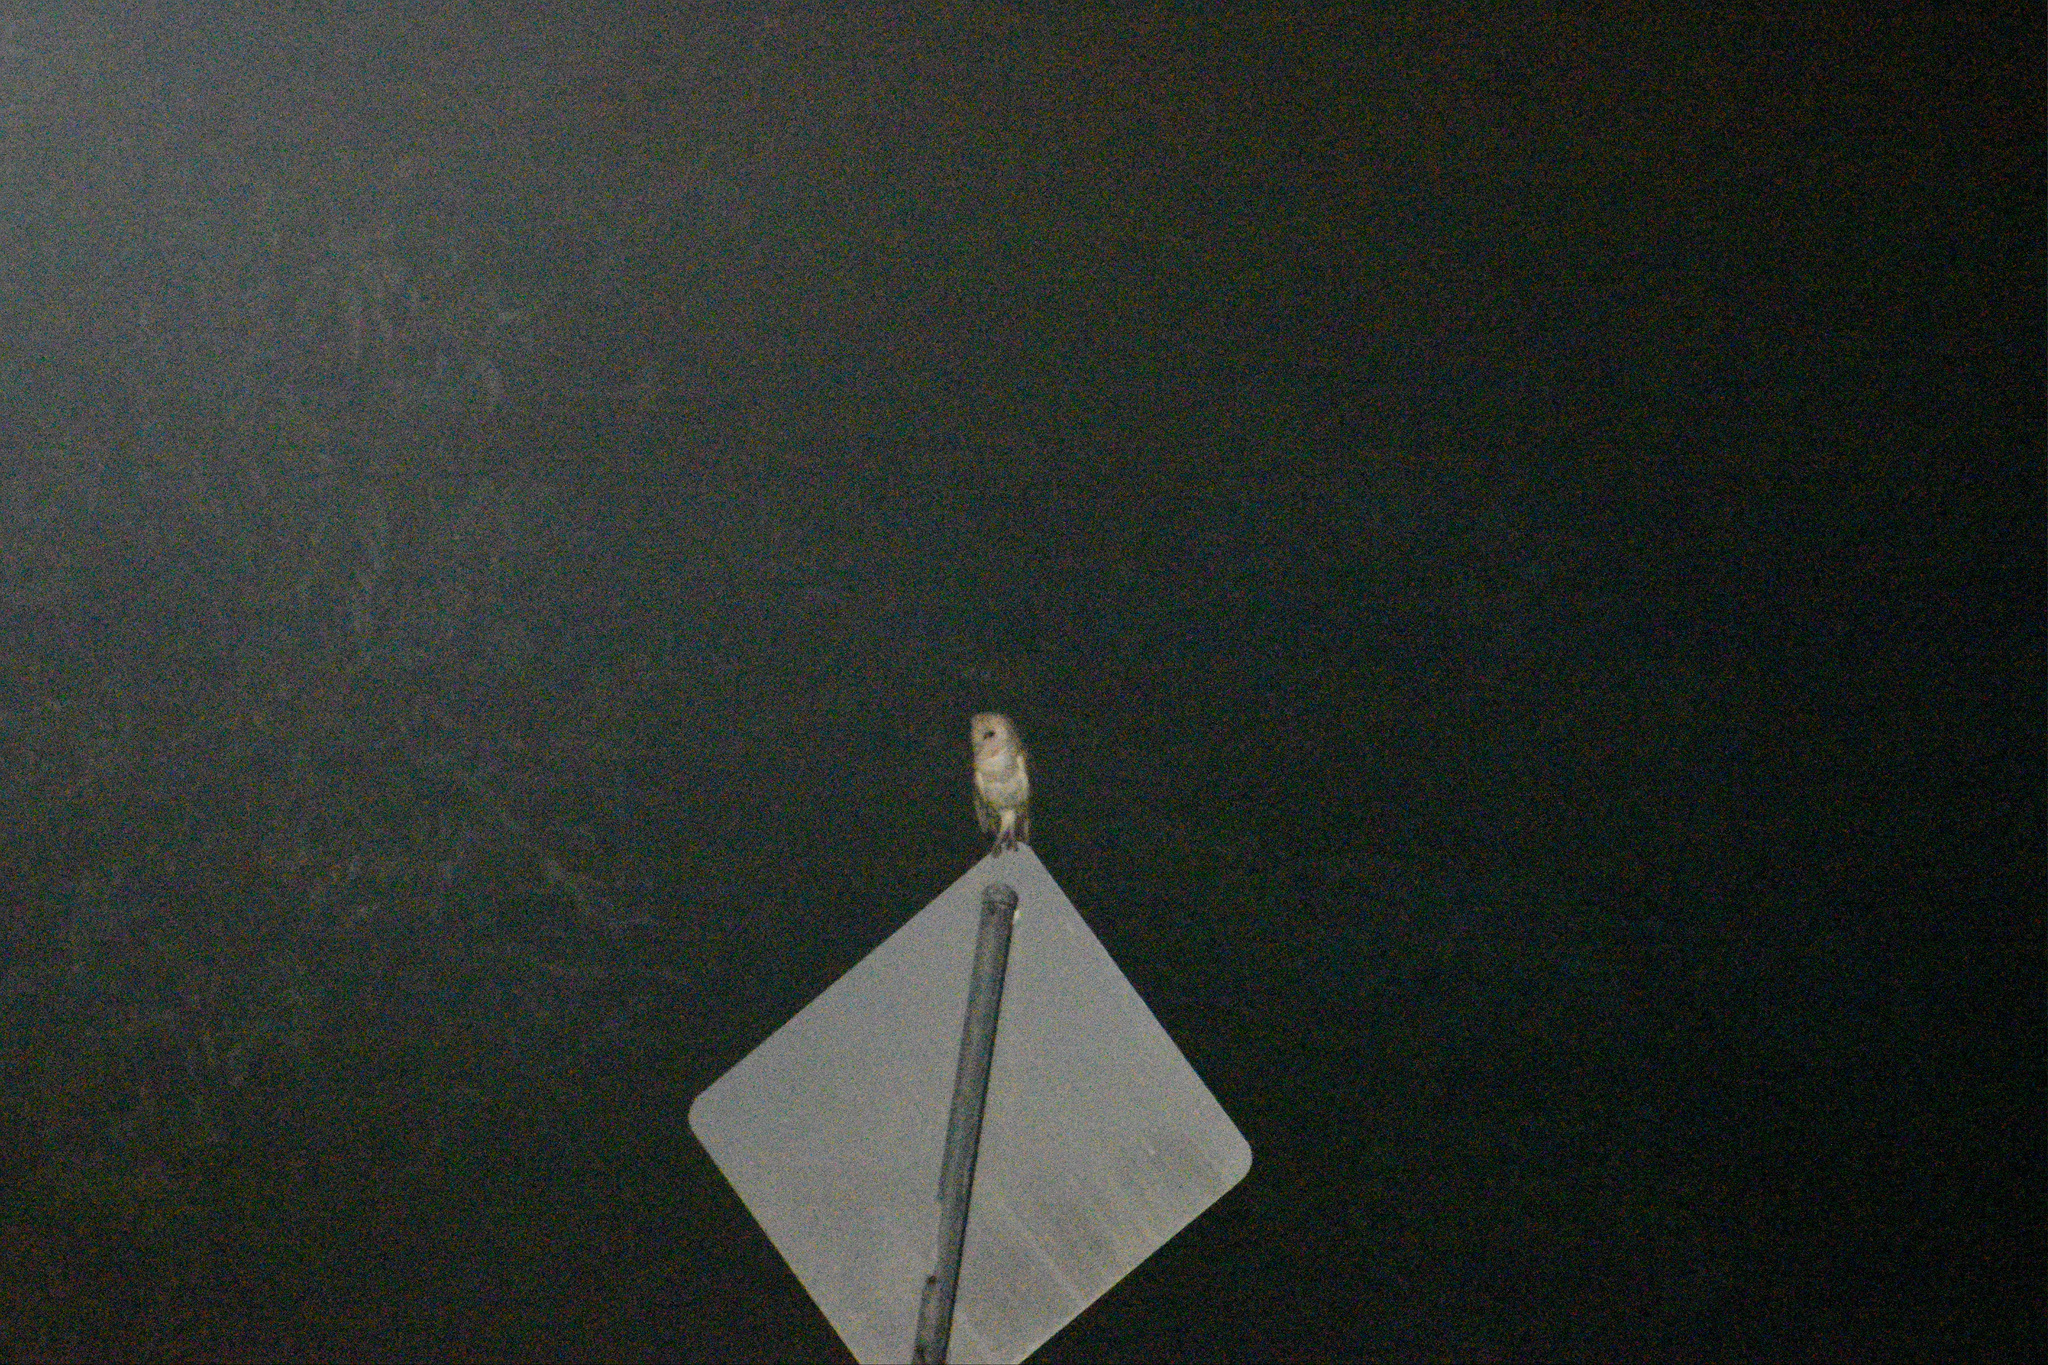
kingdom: Animalia
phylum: Chordata
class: Aves
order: Strigiformes
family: Tytonidae
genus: Tyto
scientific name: Tyto alba
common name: Barn owl
